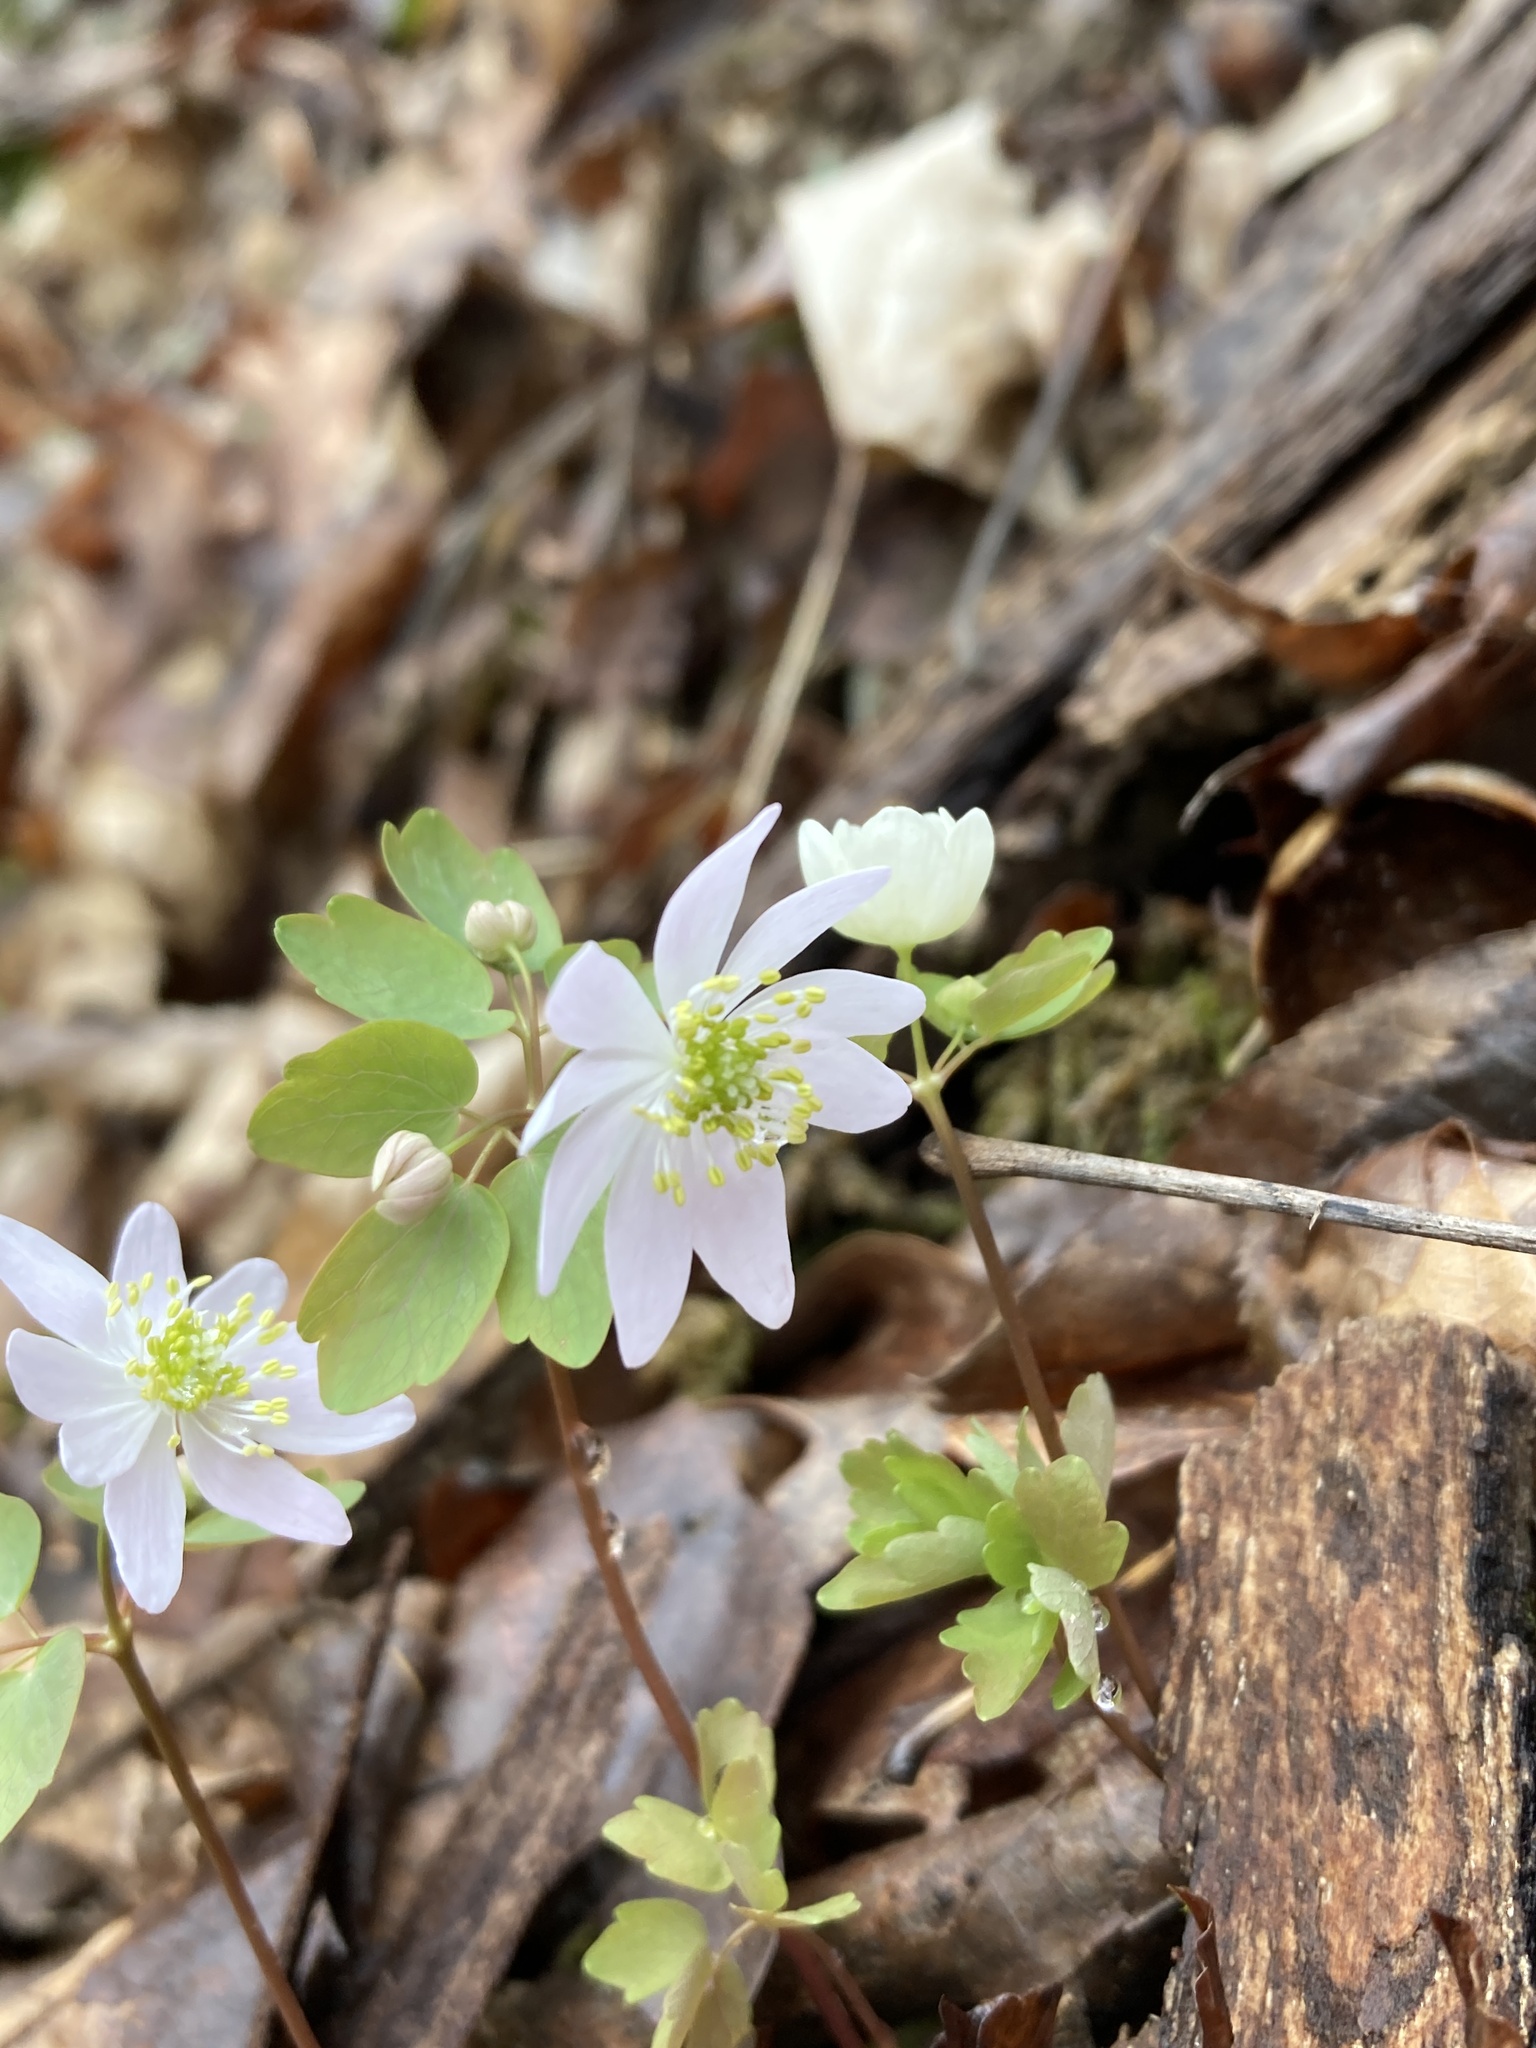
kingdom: Plantae
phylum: Tracheophyta
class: Magnoliopsida
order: Ranunculales
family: Ranunculaceae
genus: Thalictrum
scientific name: Thalictrum thalictroides
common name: Rue-anemone
